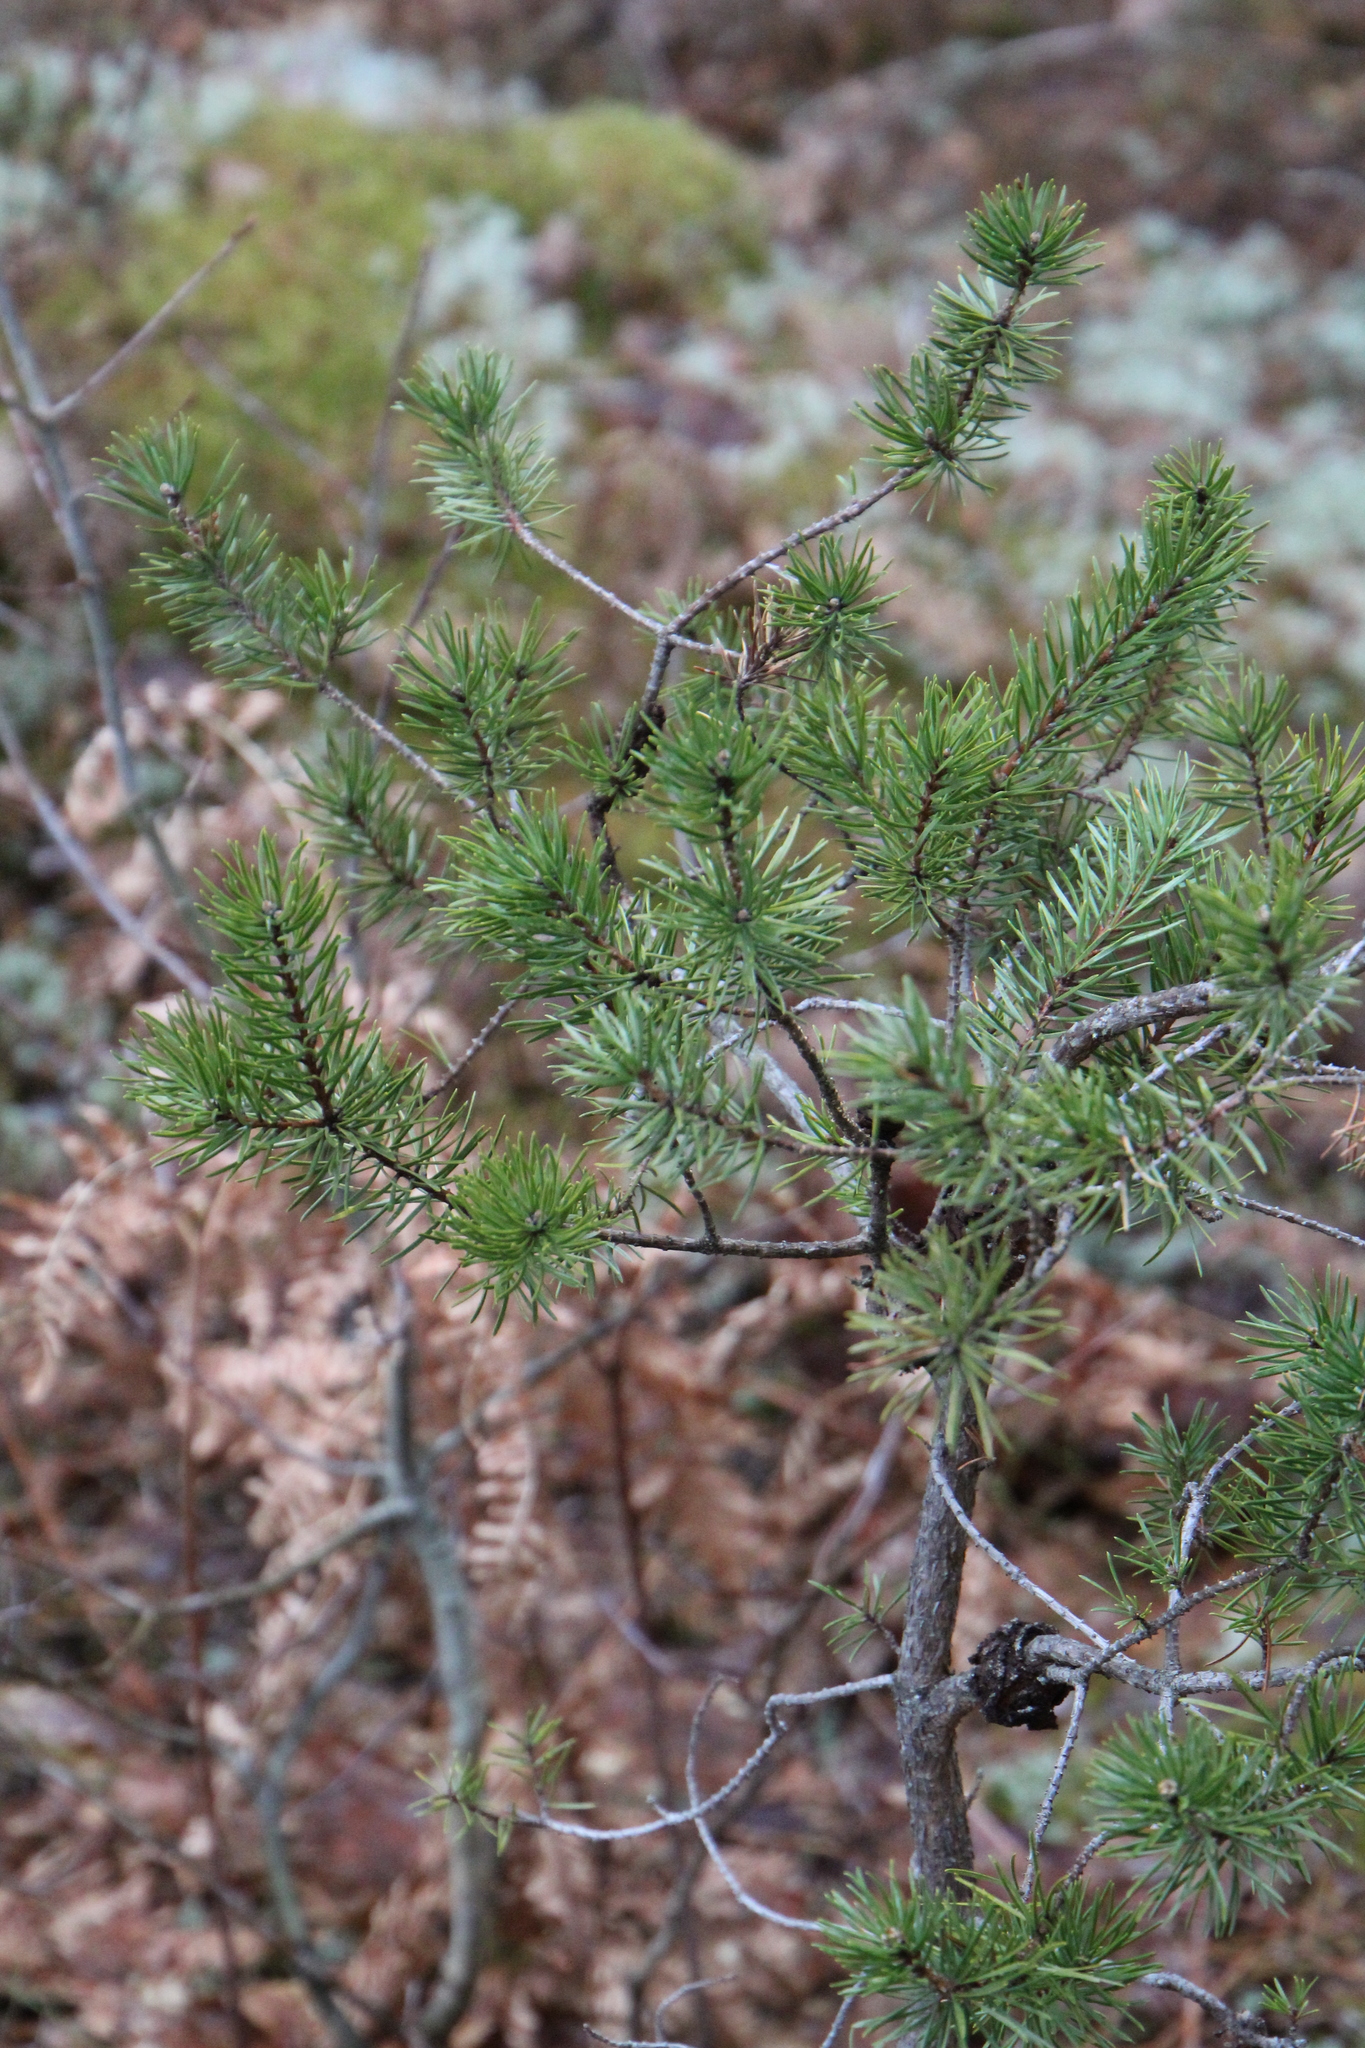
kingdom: Plantae
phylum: Tracheophyta
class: Pinopsida
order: Pinales
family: Pinaceae
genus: Pinus
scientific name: Pinus banksiana
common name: Jack pine
